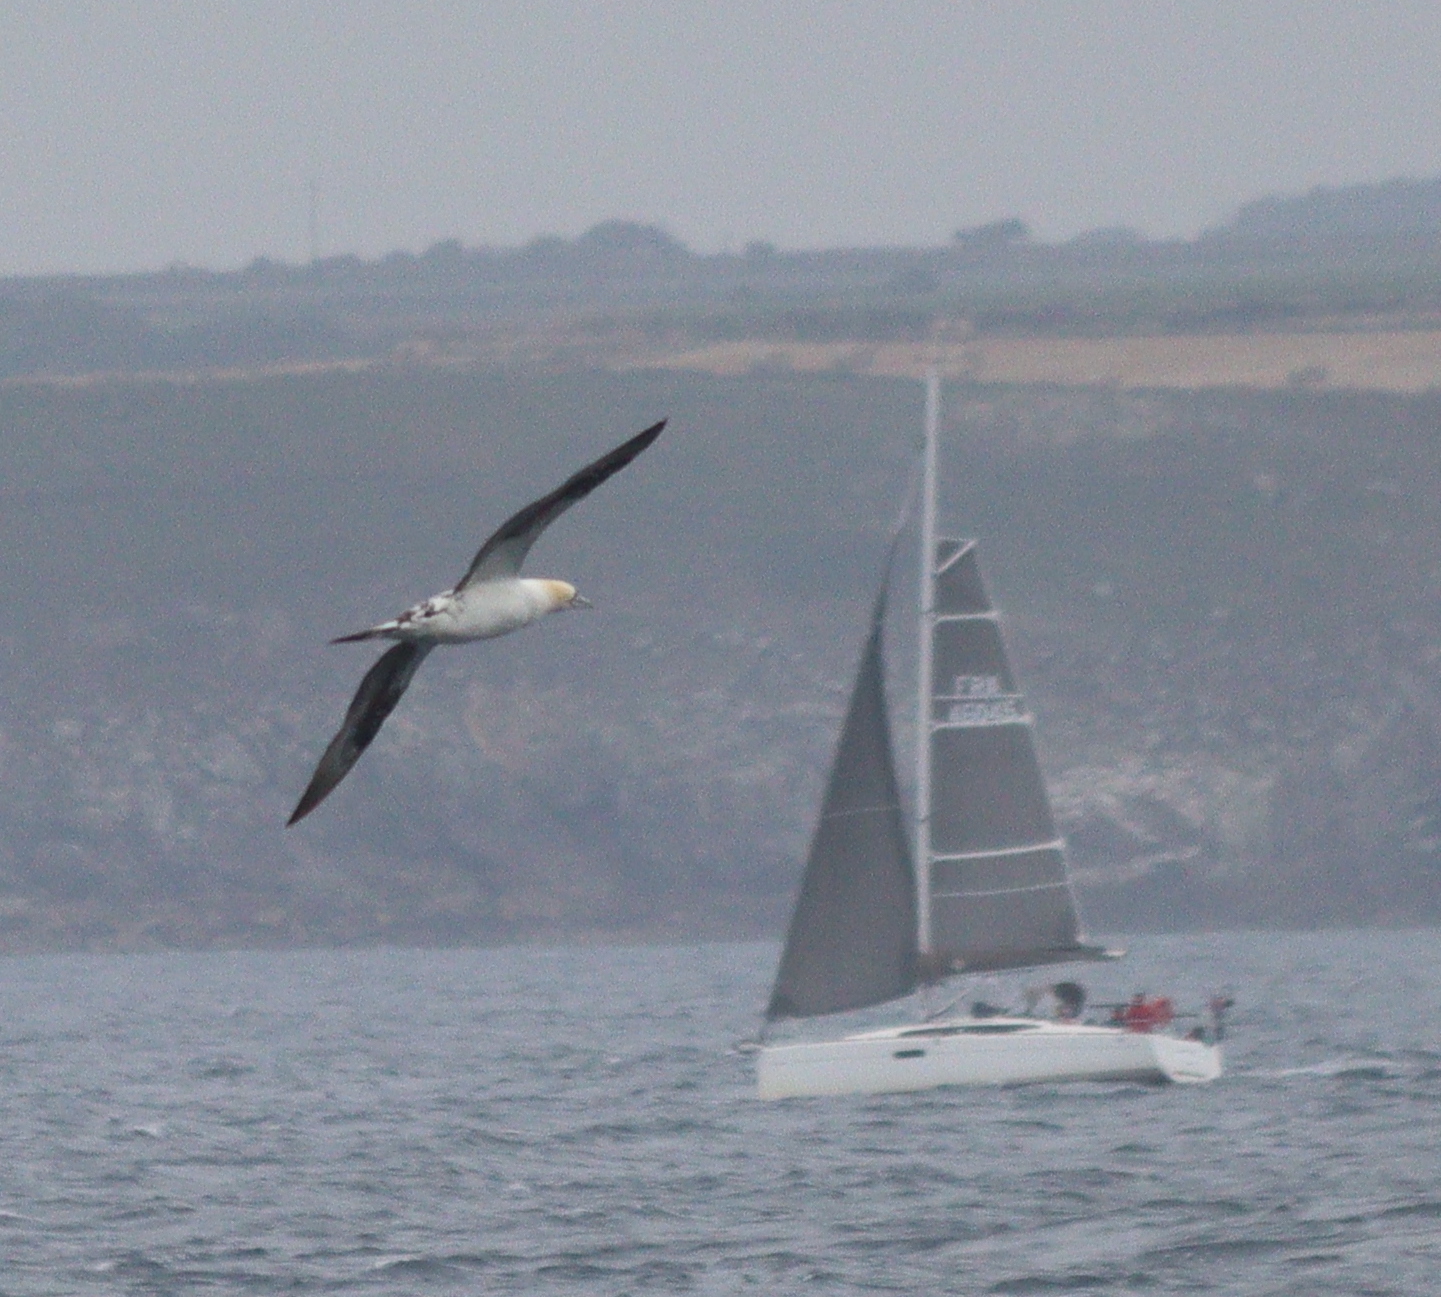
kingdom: Animalia
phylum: Chordata
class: Aves
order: Suliformes
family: Sulidae
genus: Morus
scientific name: Morus bassanus
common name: Northern gannet
